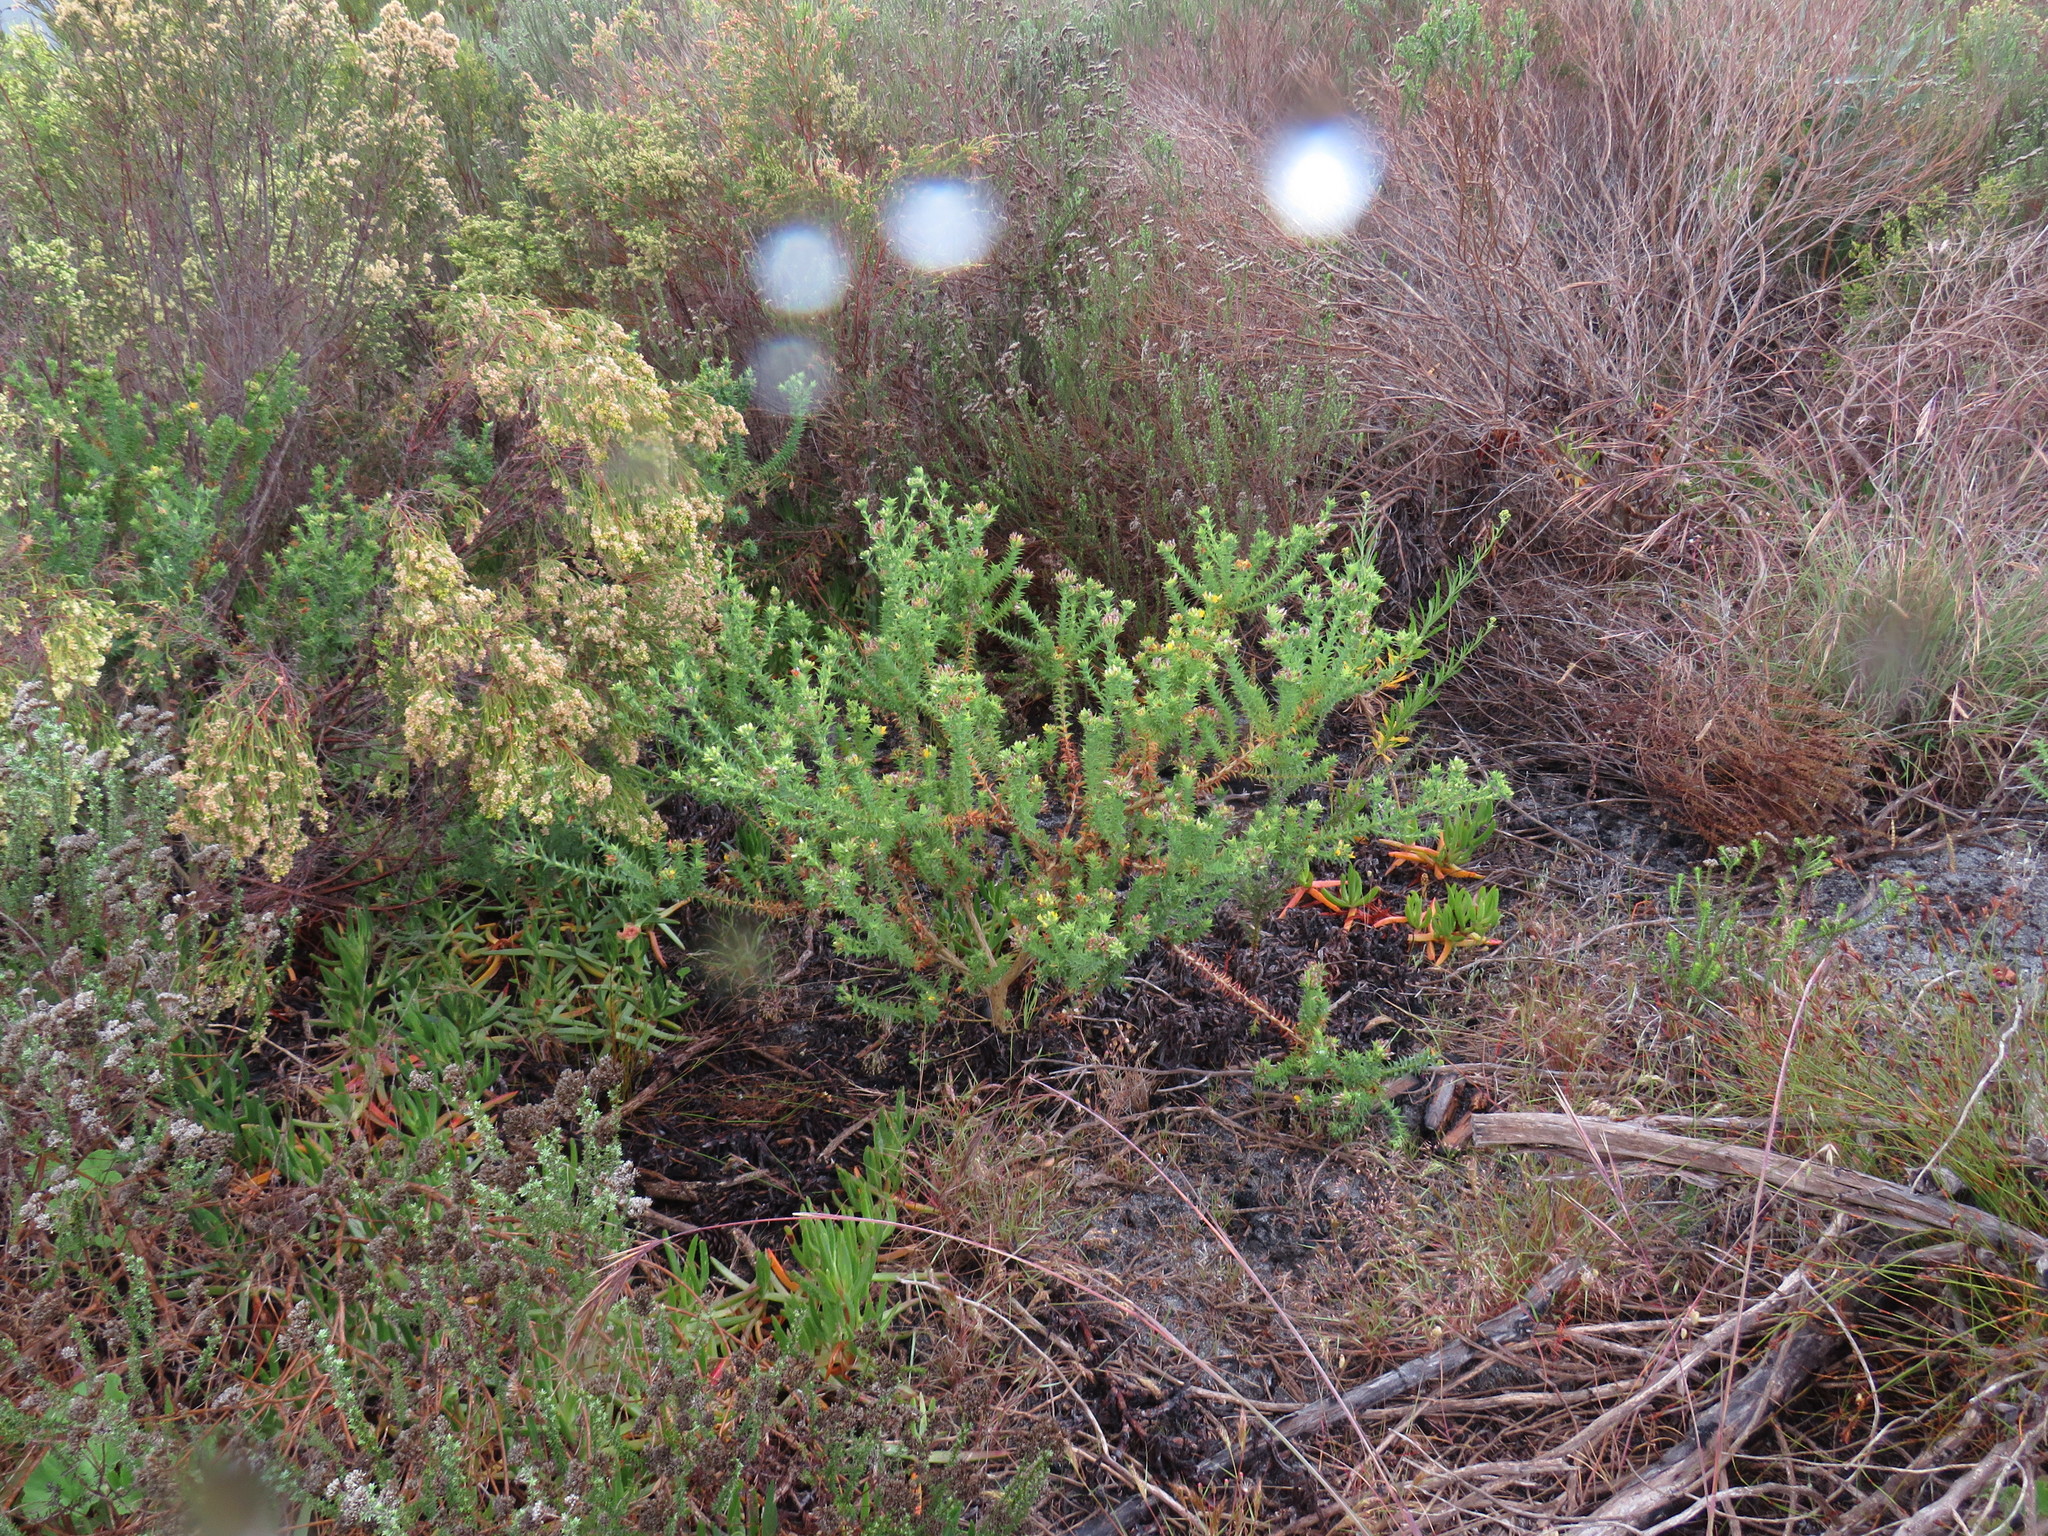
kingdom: Plantae
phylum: Tracheophyta
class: Magnoliopsida
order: Fabales
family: Fabaceae
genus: Aspalathus
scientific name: Aspalathus cordata
